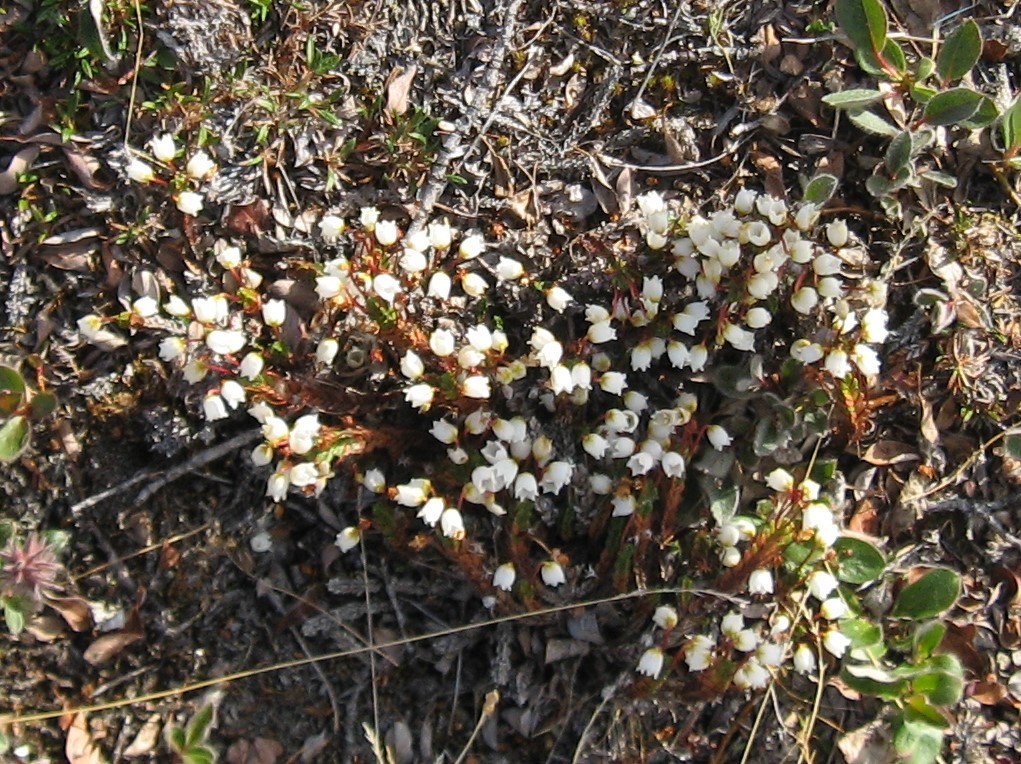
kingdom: Plantae
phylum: Tracheophyta
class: Magnoliopsida
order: Ericales
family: Ericaceae
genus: Cassiope
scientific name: Cassiope tetragona
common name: Arctic bell heather
